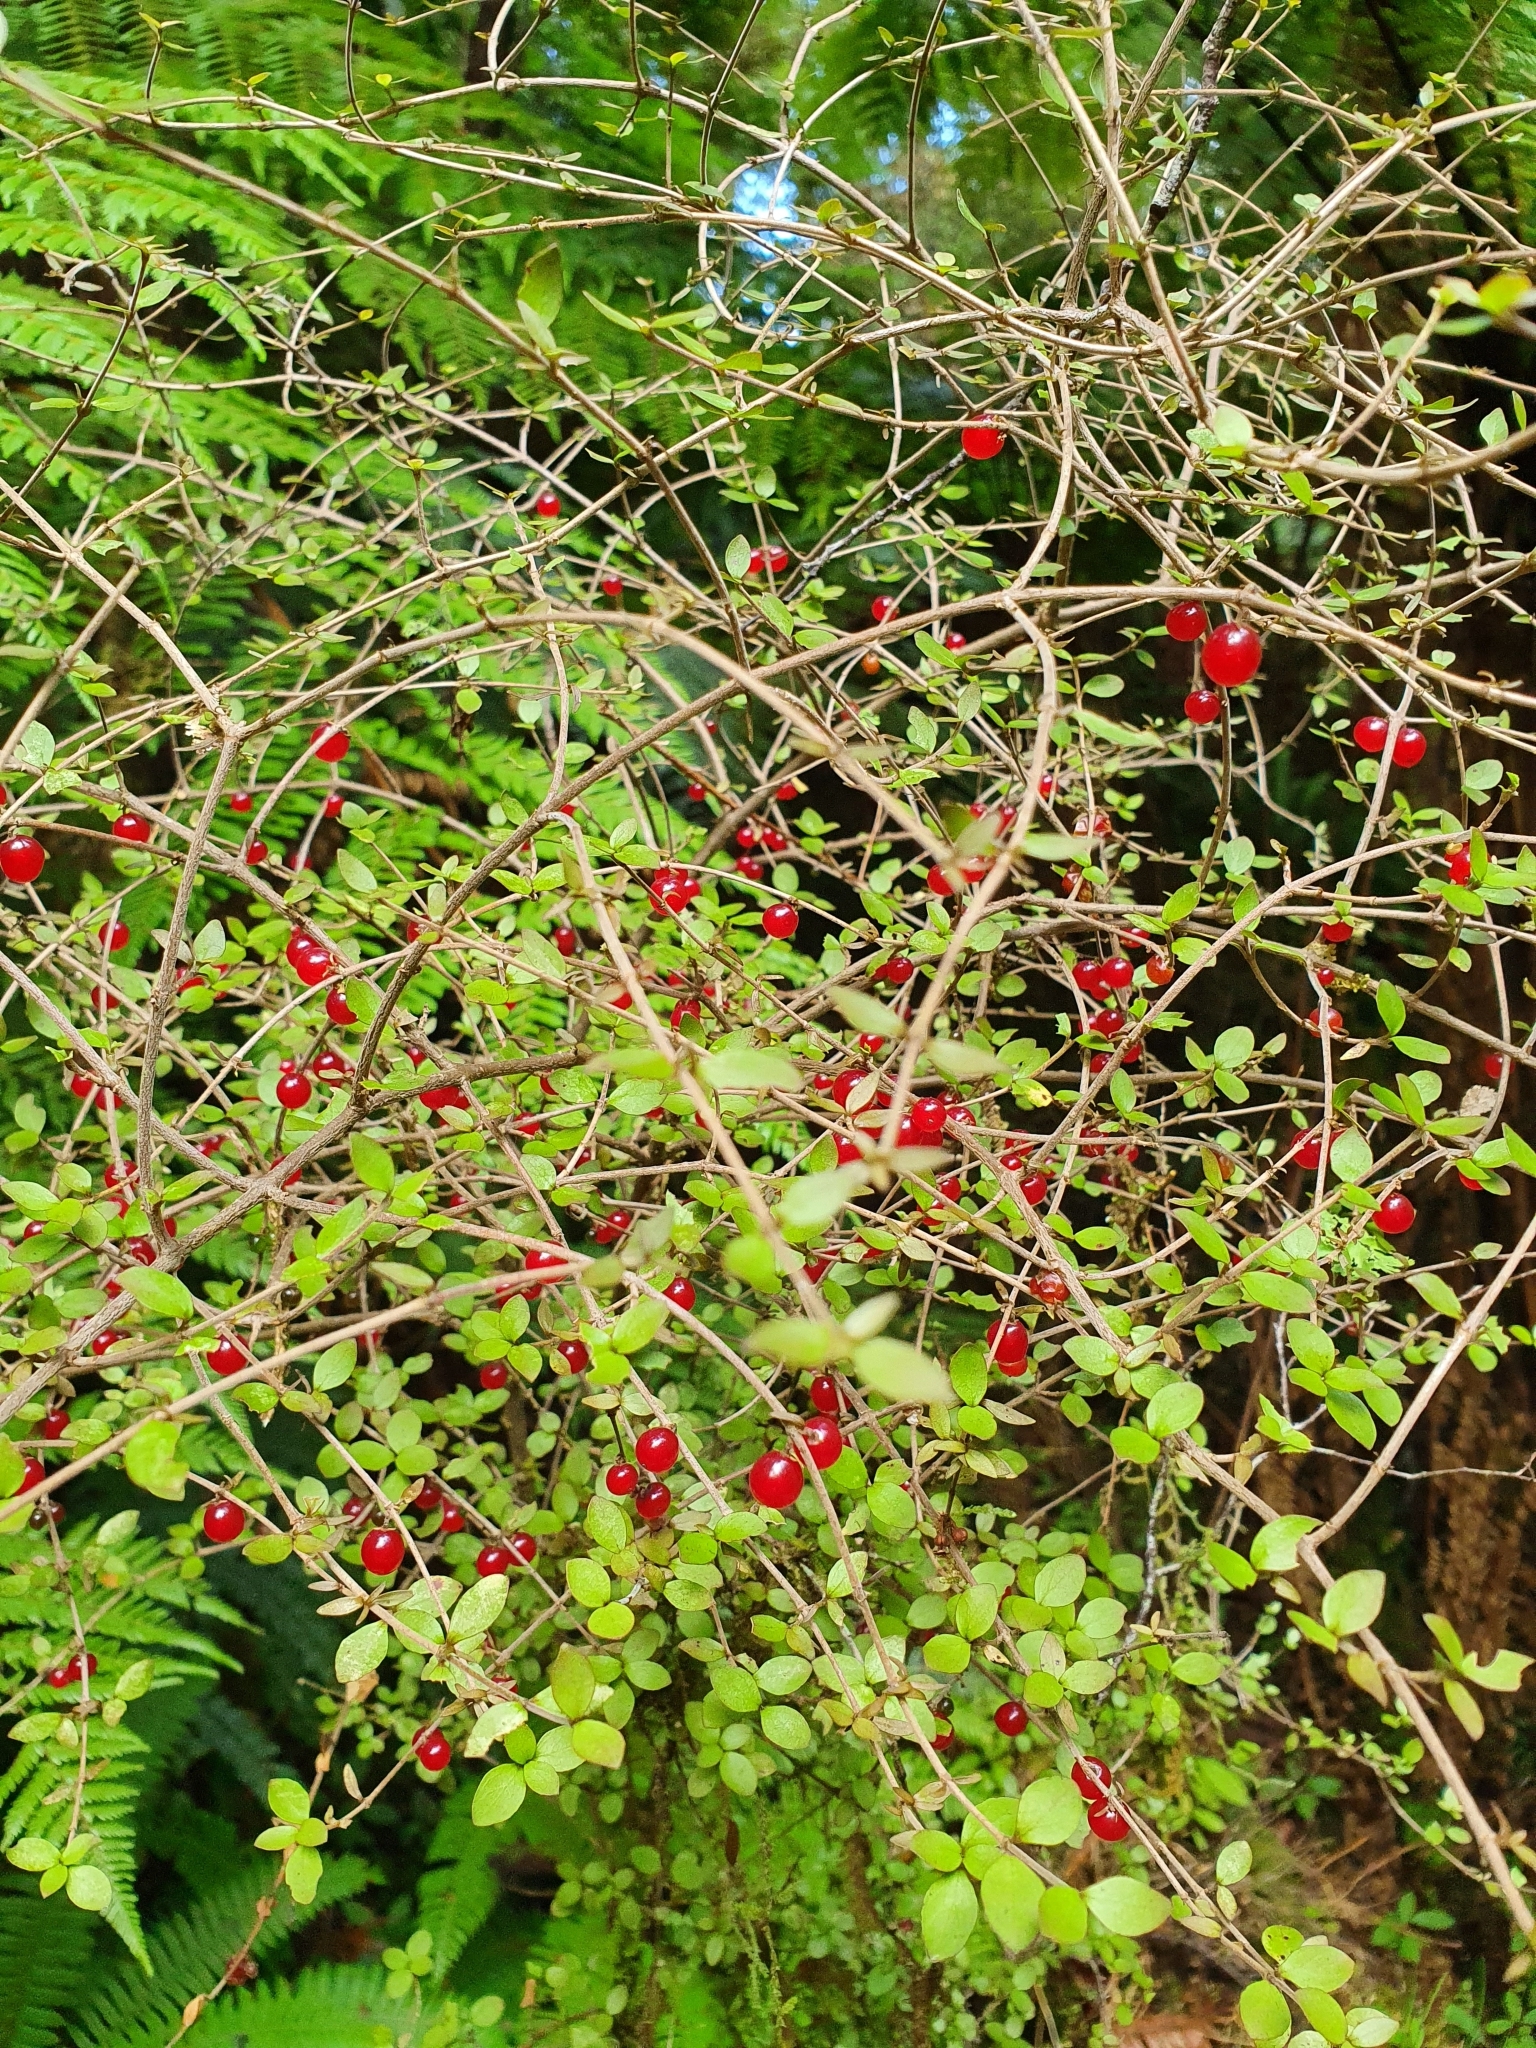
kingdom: Plantae
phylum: Tracheophyta
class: Magnoliopsida
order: Gentianales
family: Rubiaceae
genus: Coprosma
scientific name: Coprosma rhamnoides
